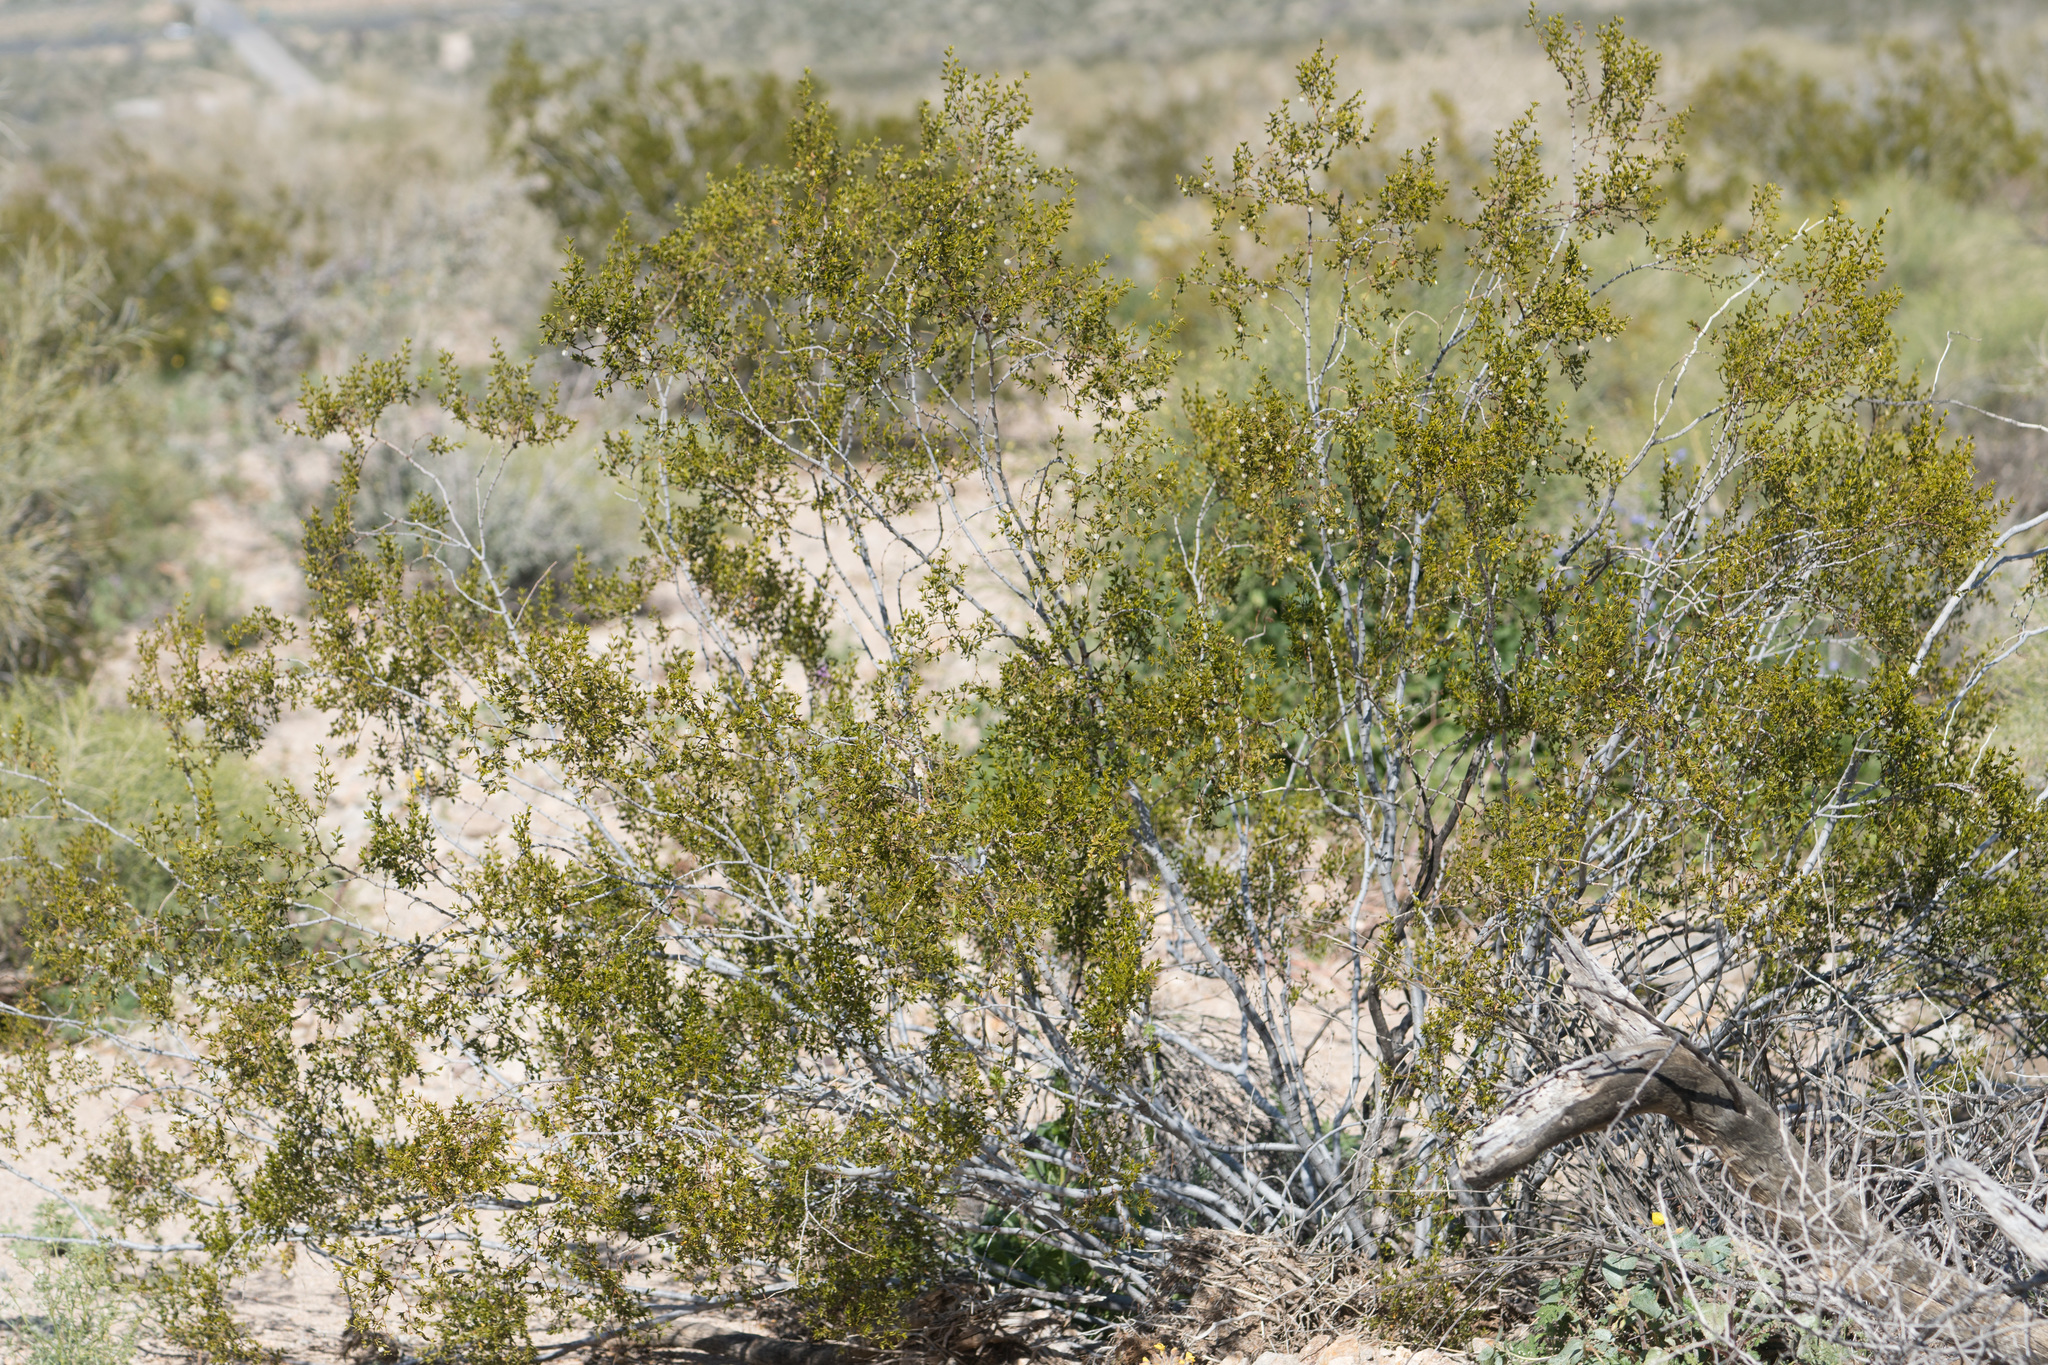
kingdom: Plantae
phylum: Tracheophyta
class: Magnoliopsida
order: Zygophyllales
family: Zygophyllaceae
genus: Larrea
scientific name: Larrea tridentata
